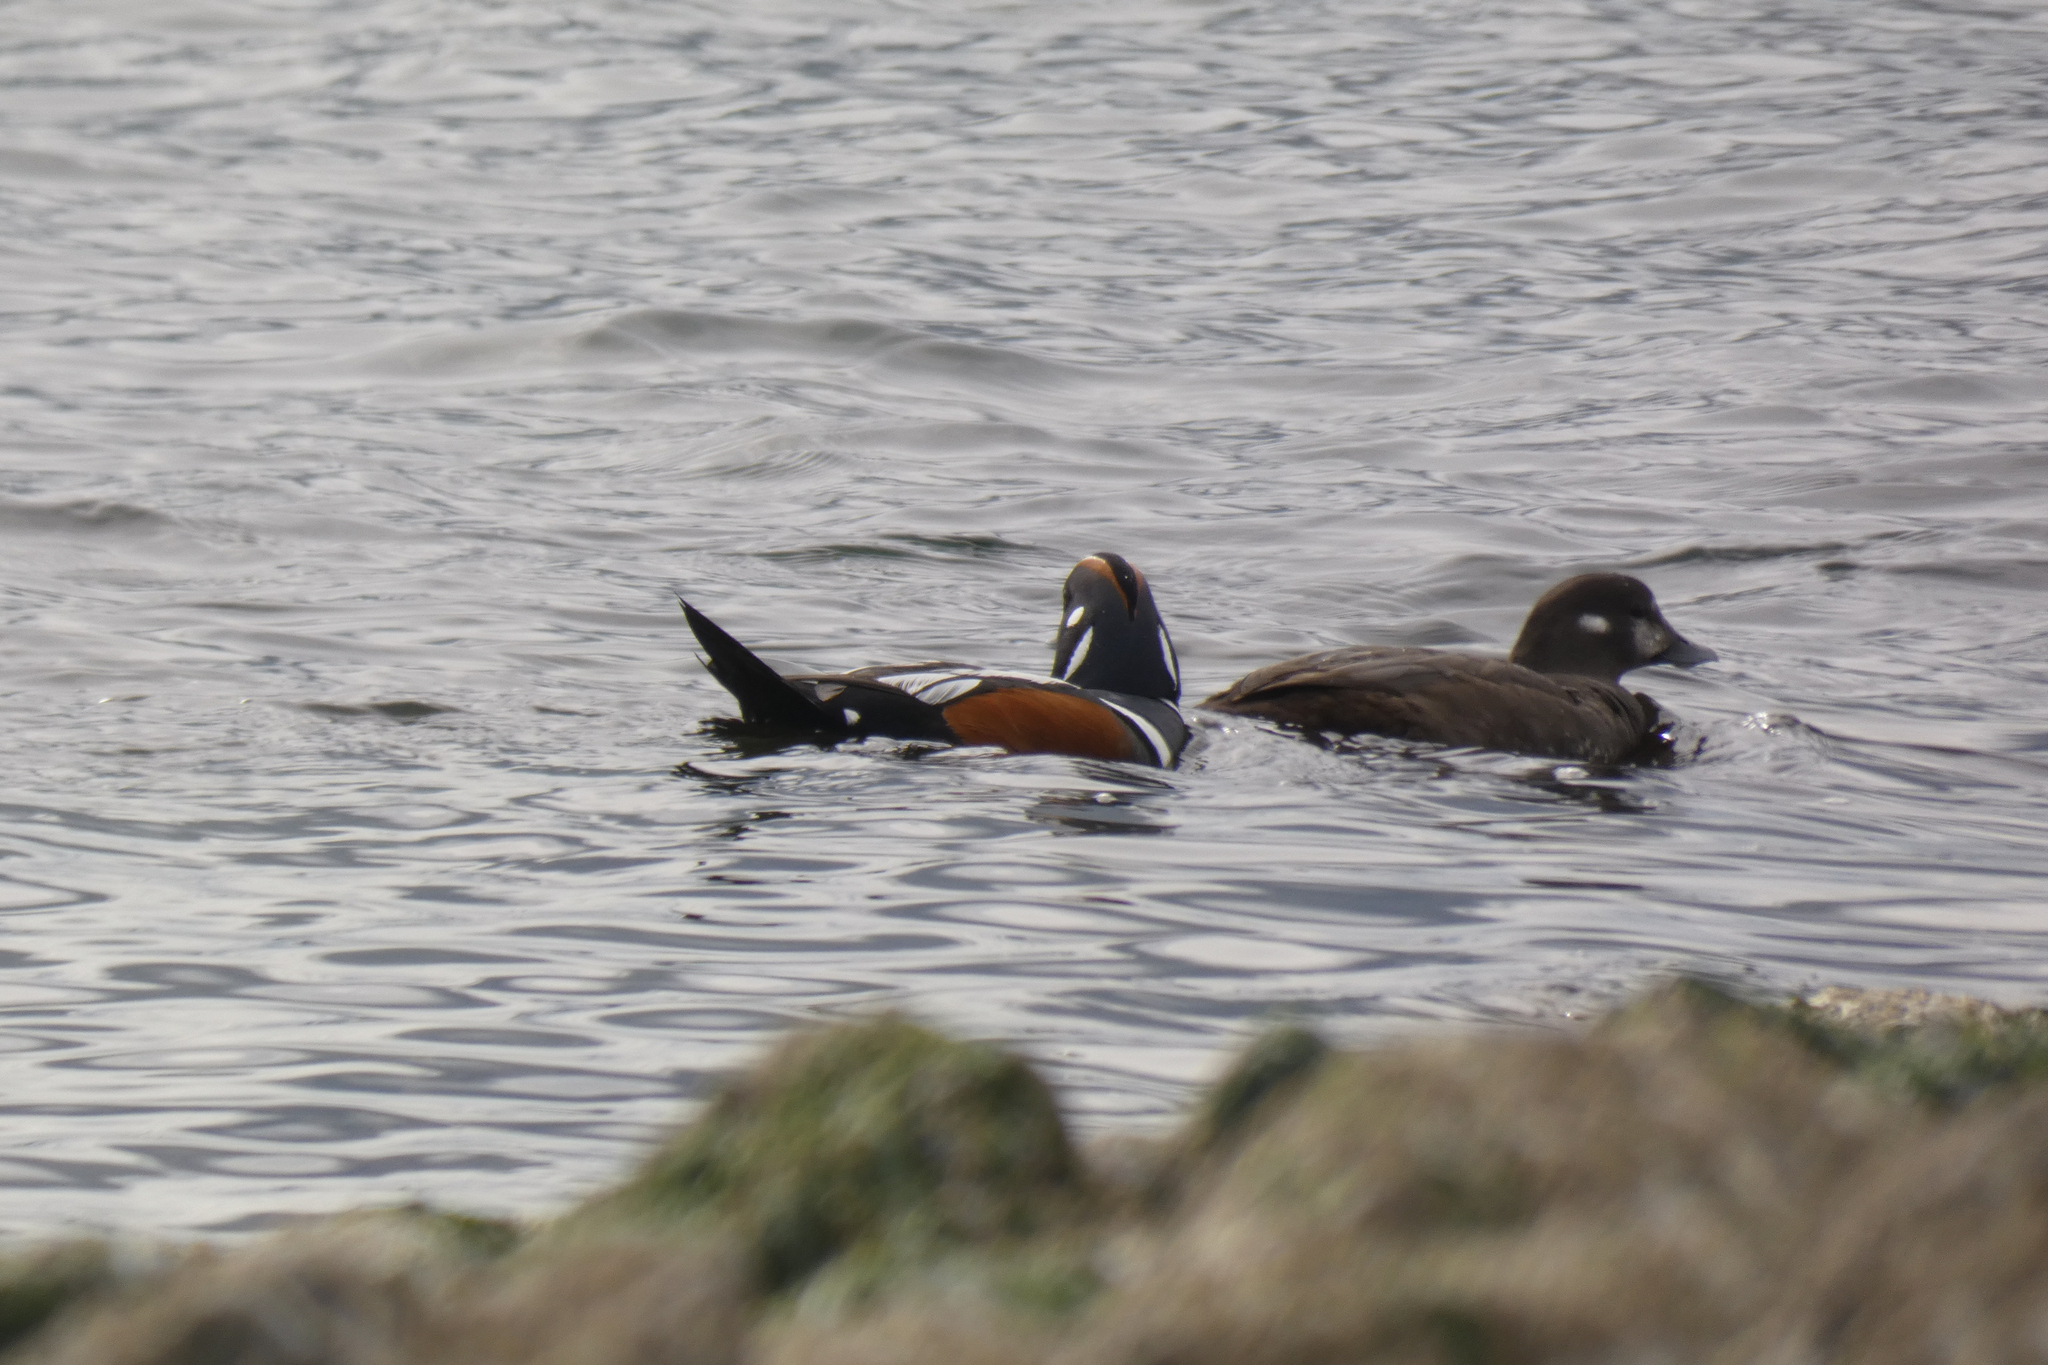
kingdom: Animalia
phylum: Chordata
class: Aves
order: Anseriformes
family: Anatidae
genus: Histrionicus
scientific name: Histrionicus histrionicus
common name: Harlequin duck
